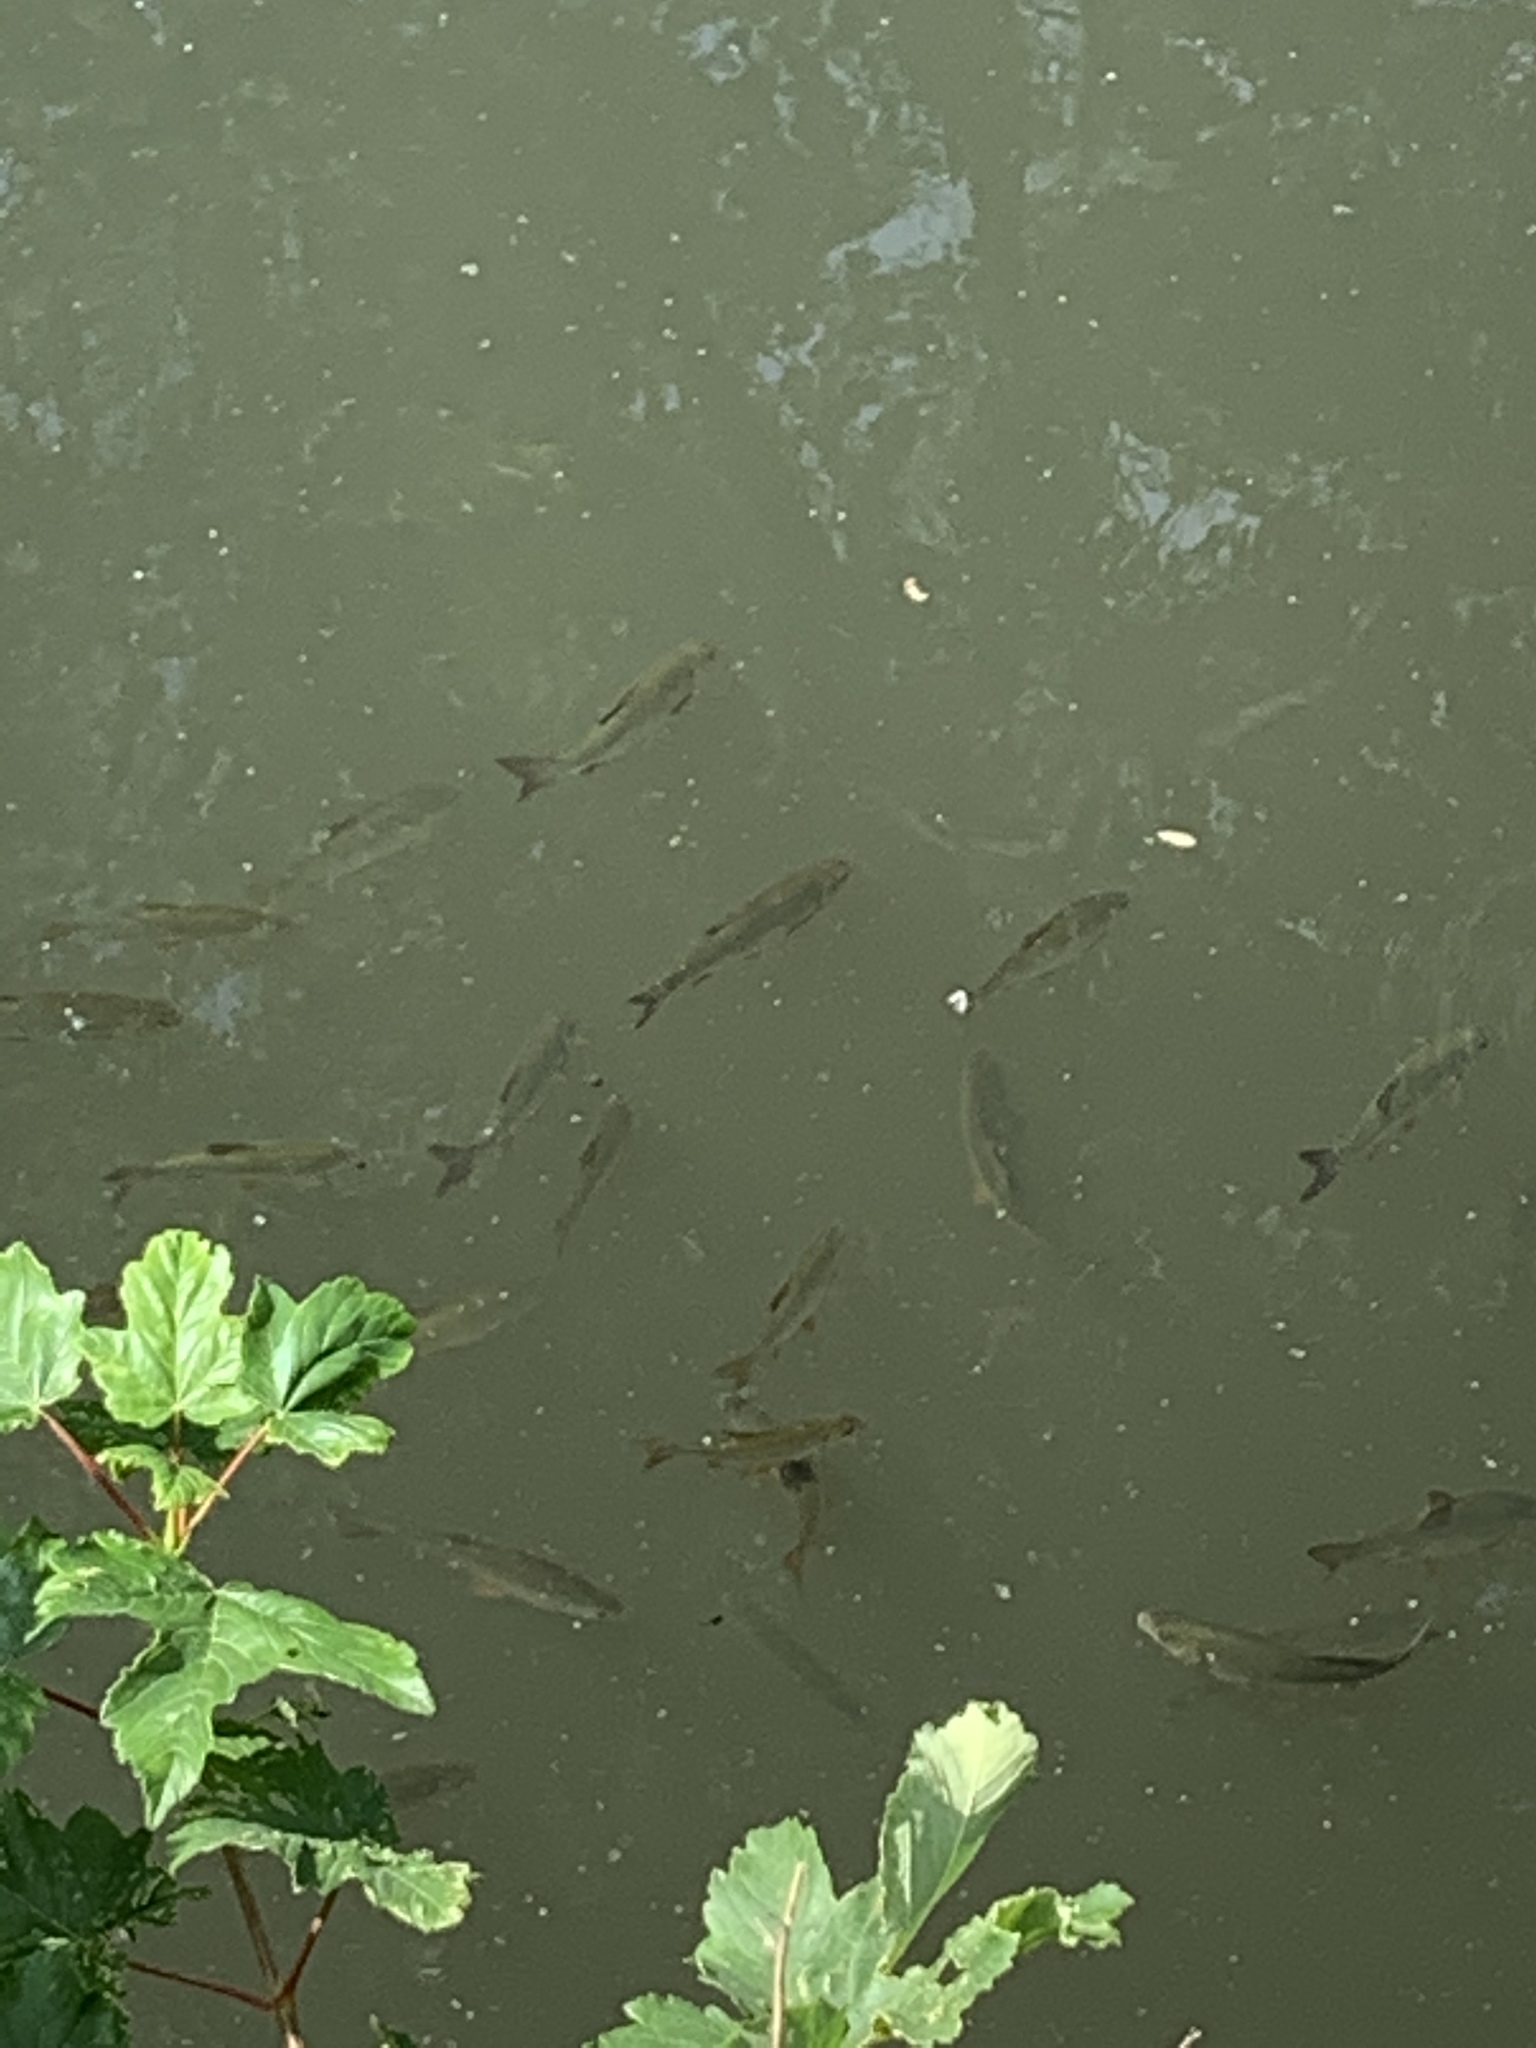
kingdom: Animalia
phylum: Chordata
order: Cypriniformes
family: Cyprinidae
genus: Rutilus
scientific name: Rutilus rutilus
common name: Roach
